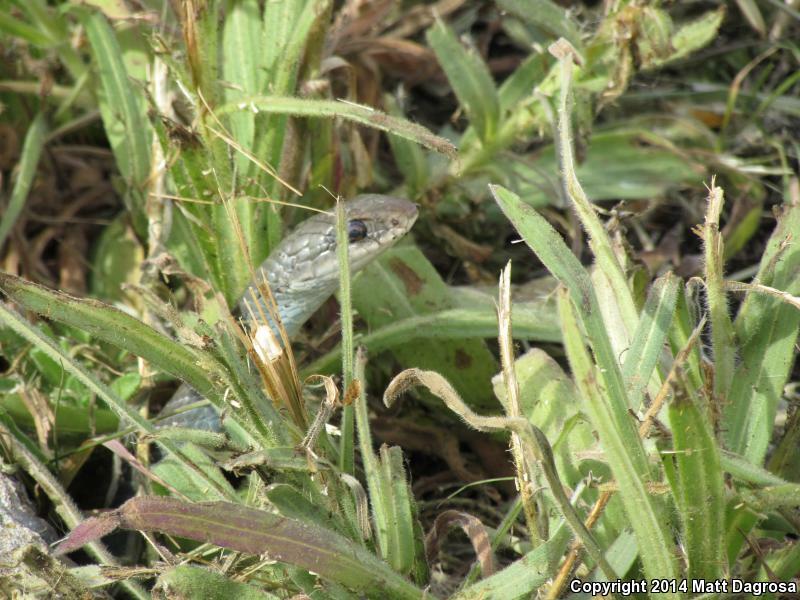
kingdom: Animalia
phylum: Chordata
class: Squamata
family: Colubridae
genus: Coluber
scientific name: Coluber constrictor
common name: Eastern racer
